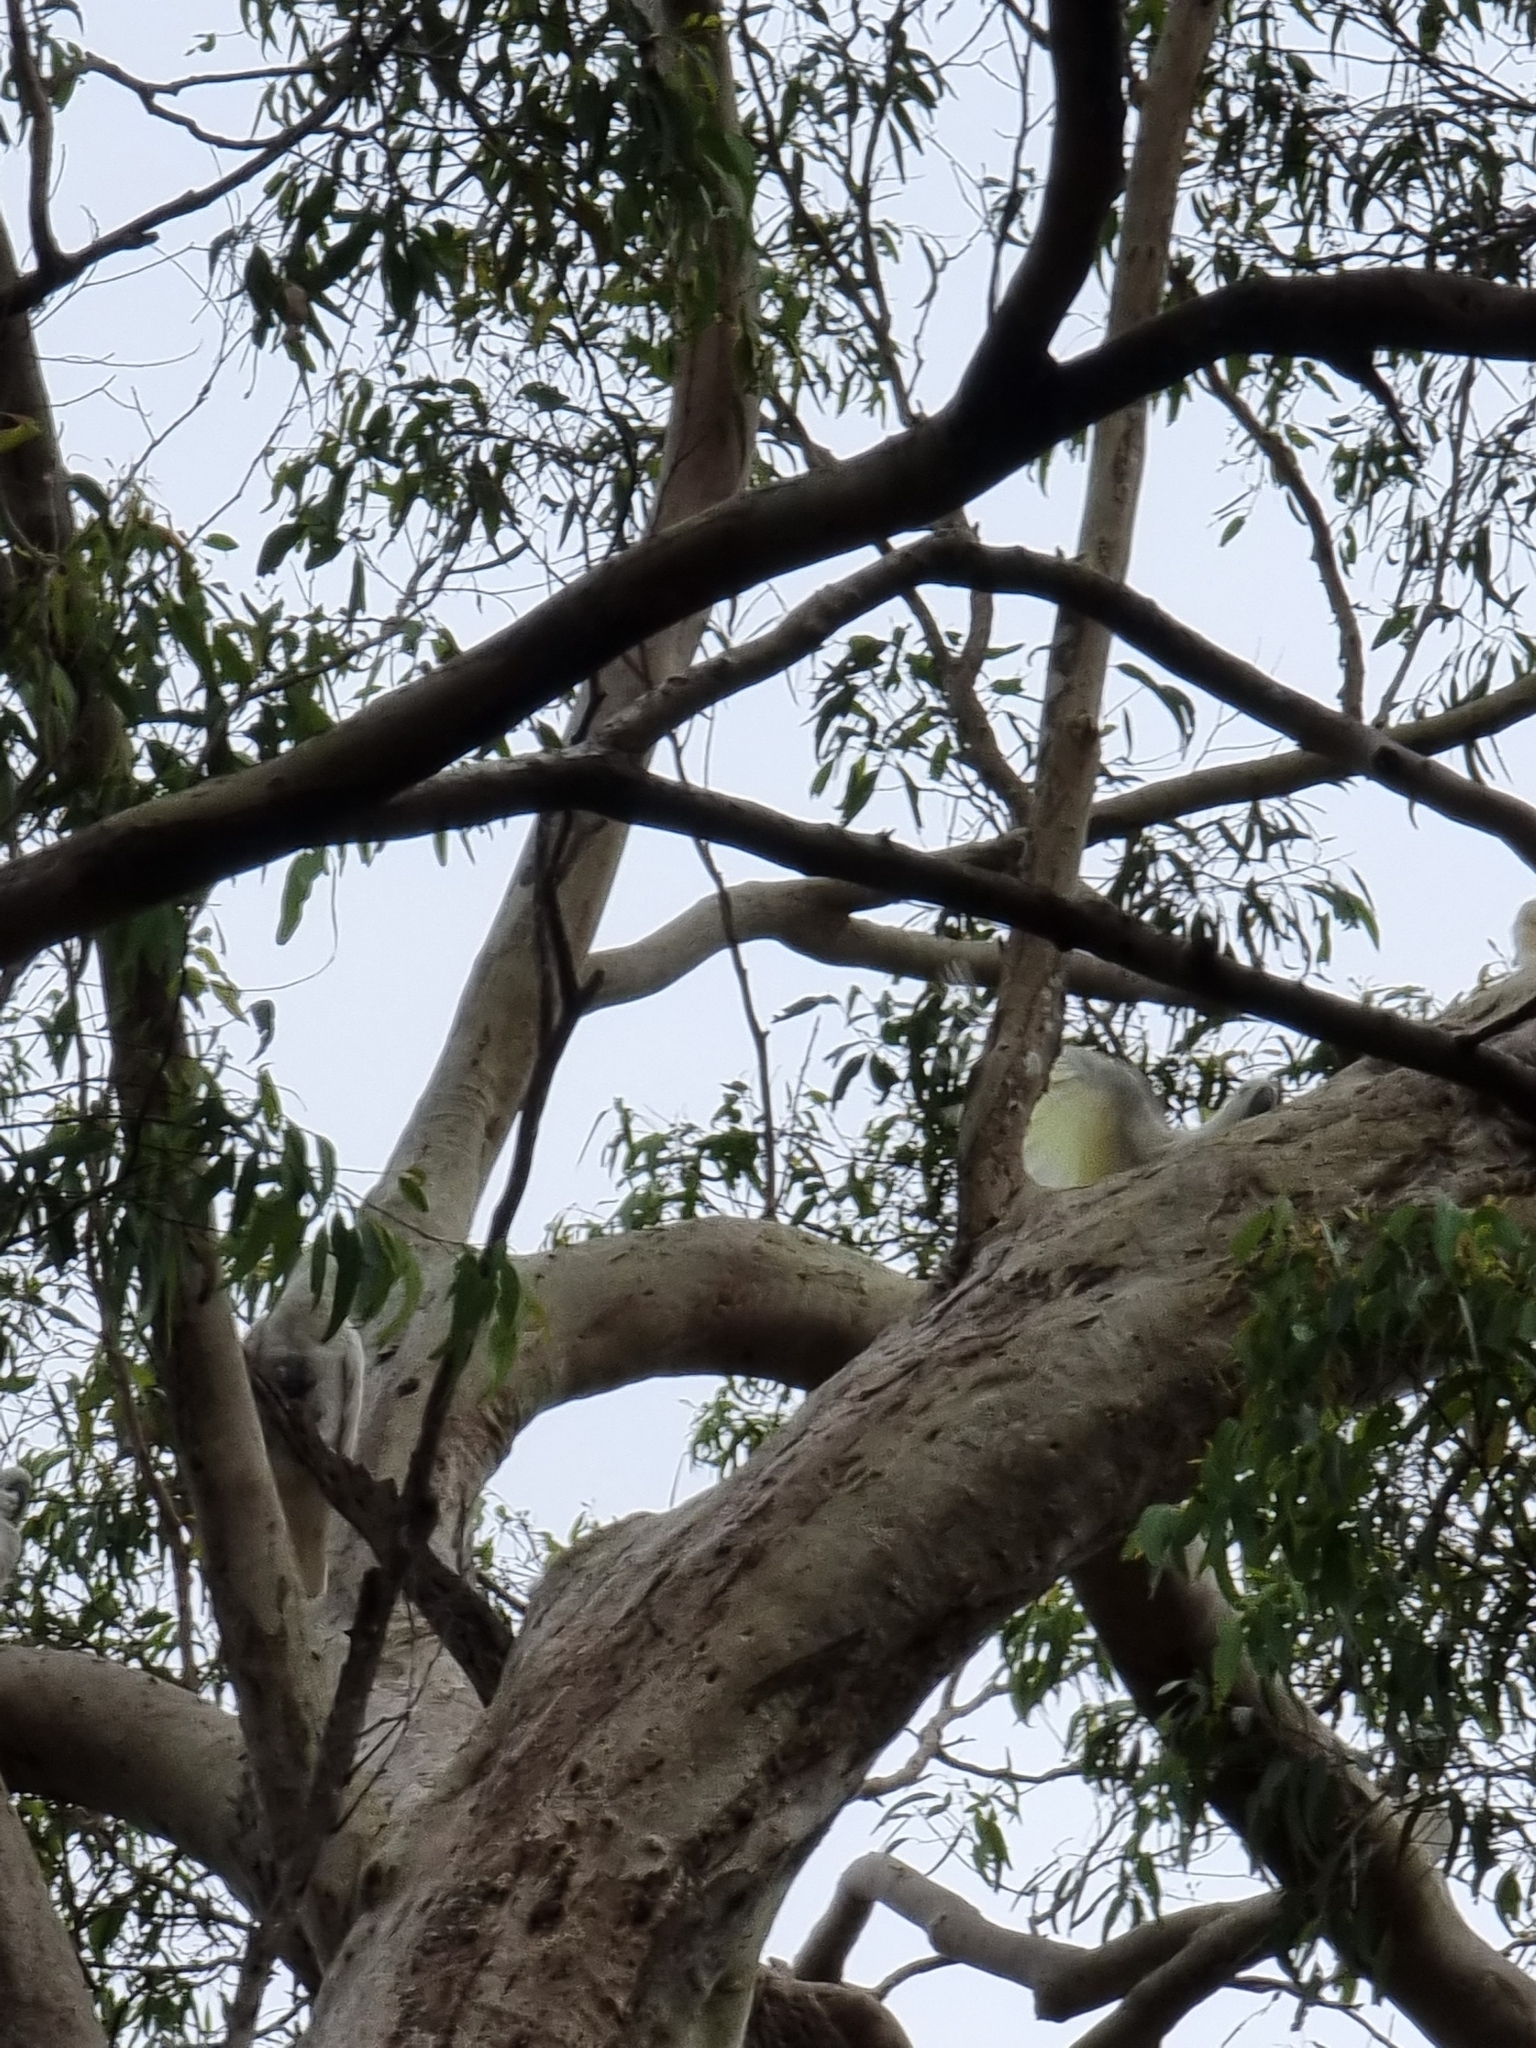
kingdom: Animalia
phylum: Chordata
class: Aves
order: Psittaciformes
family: Psittacidae
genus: Cacatua
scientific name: Cacatua galerita
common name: Sulphur-crested cockatoo
